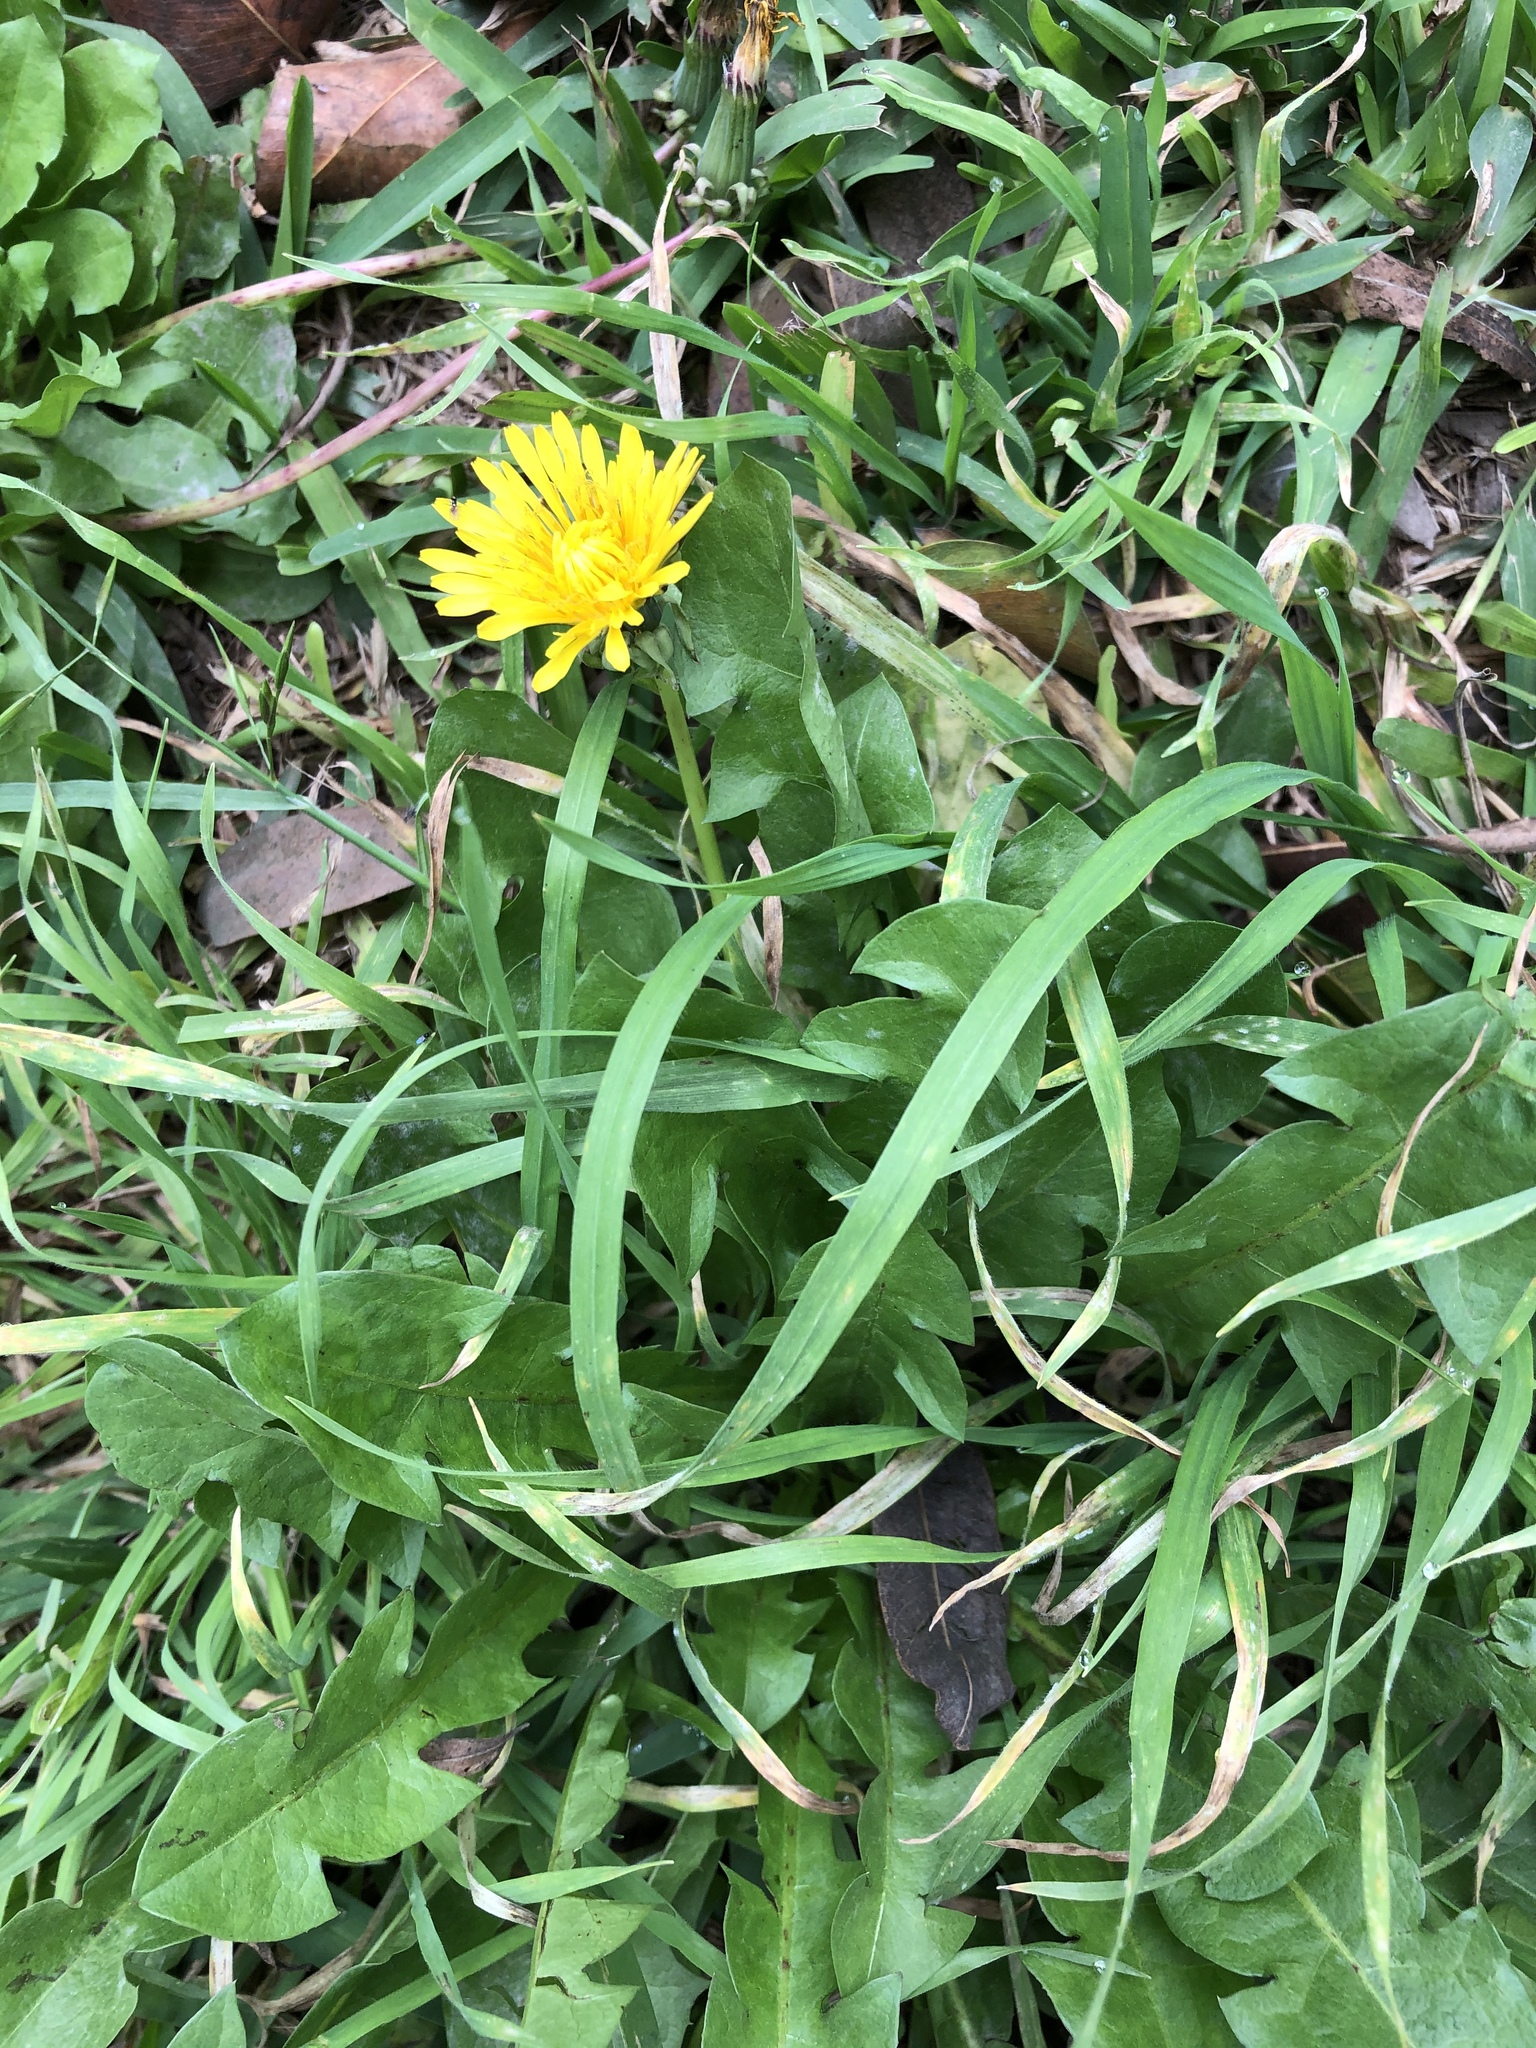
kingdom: Plantae
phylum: Tracheophyta
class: Magnoliopsida
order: Asterales
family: Asteraceae
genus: Taraxacum
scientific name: Taraxacum
